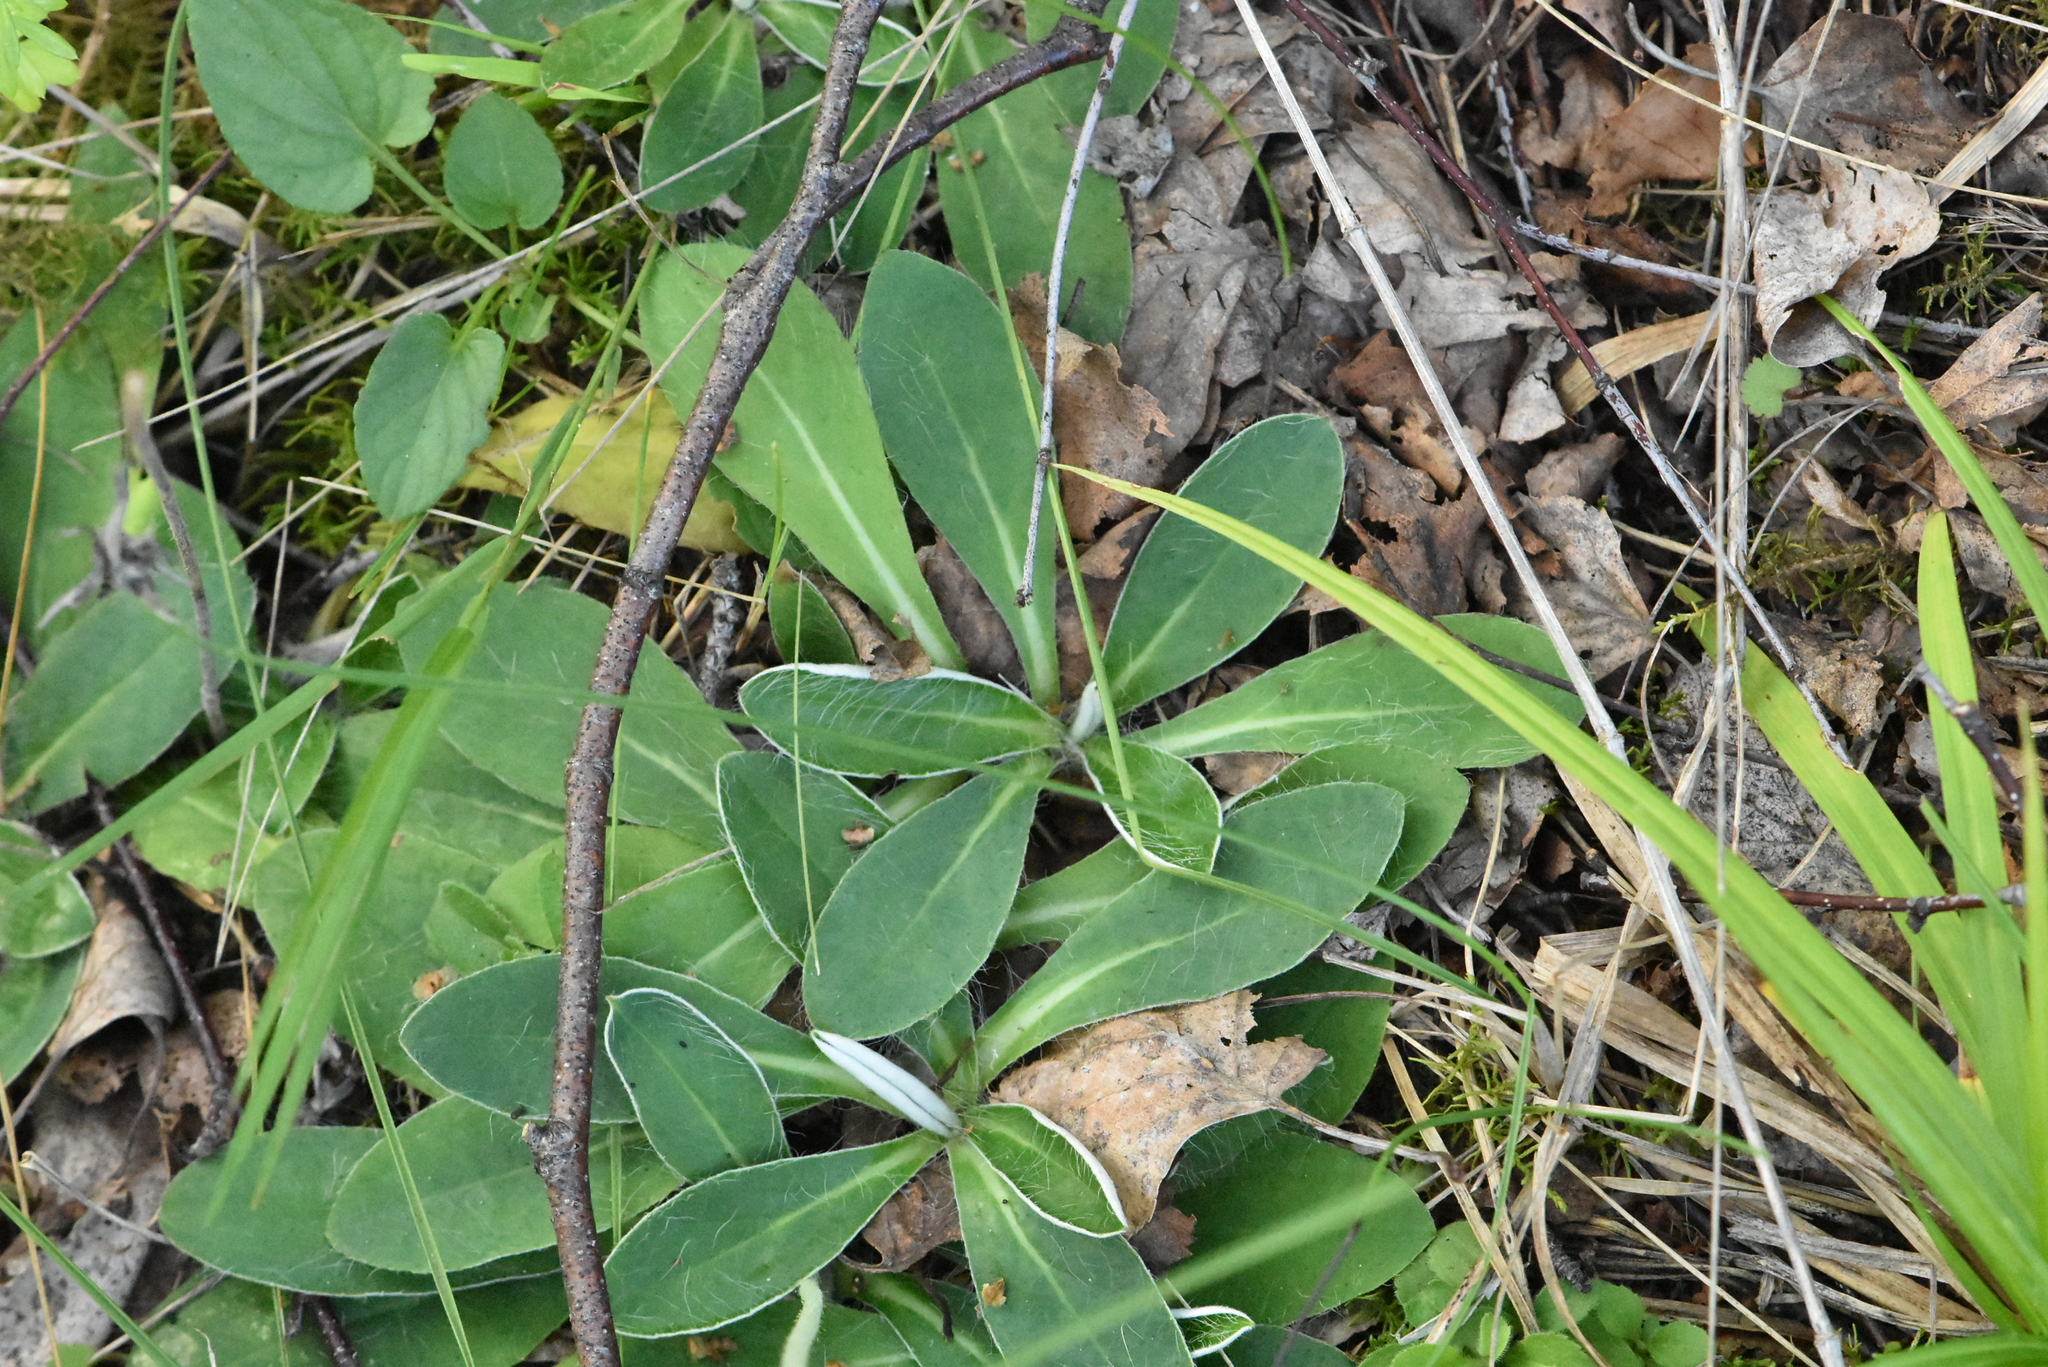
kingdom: Plantae
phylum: Tracheophyta
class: Magnoliopsida
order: Asterales
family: Asteraceae
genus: Pilosella
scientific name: Pilosella officinarum
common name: Mouse-ear hawkweed
